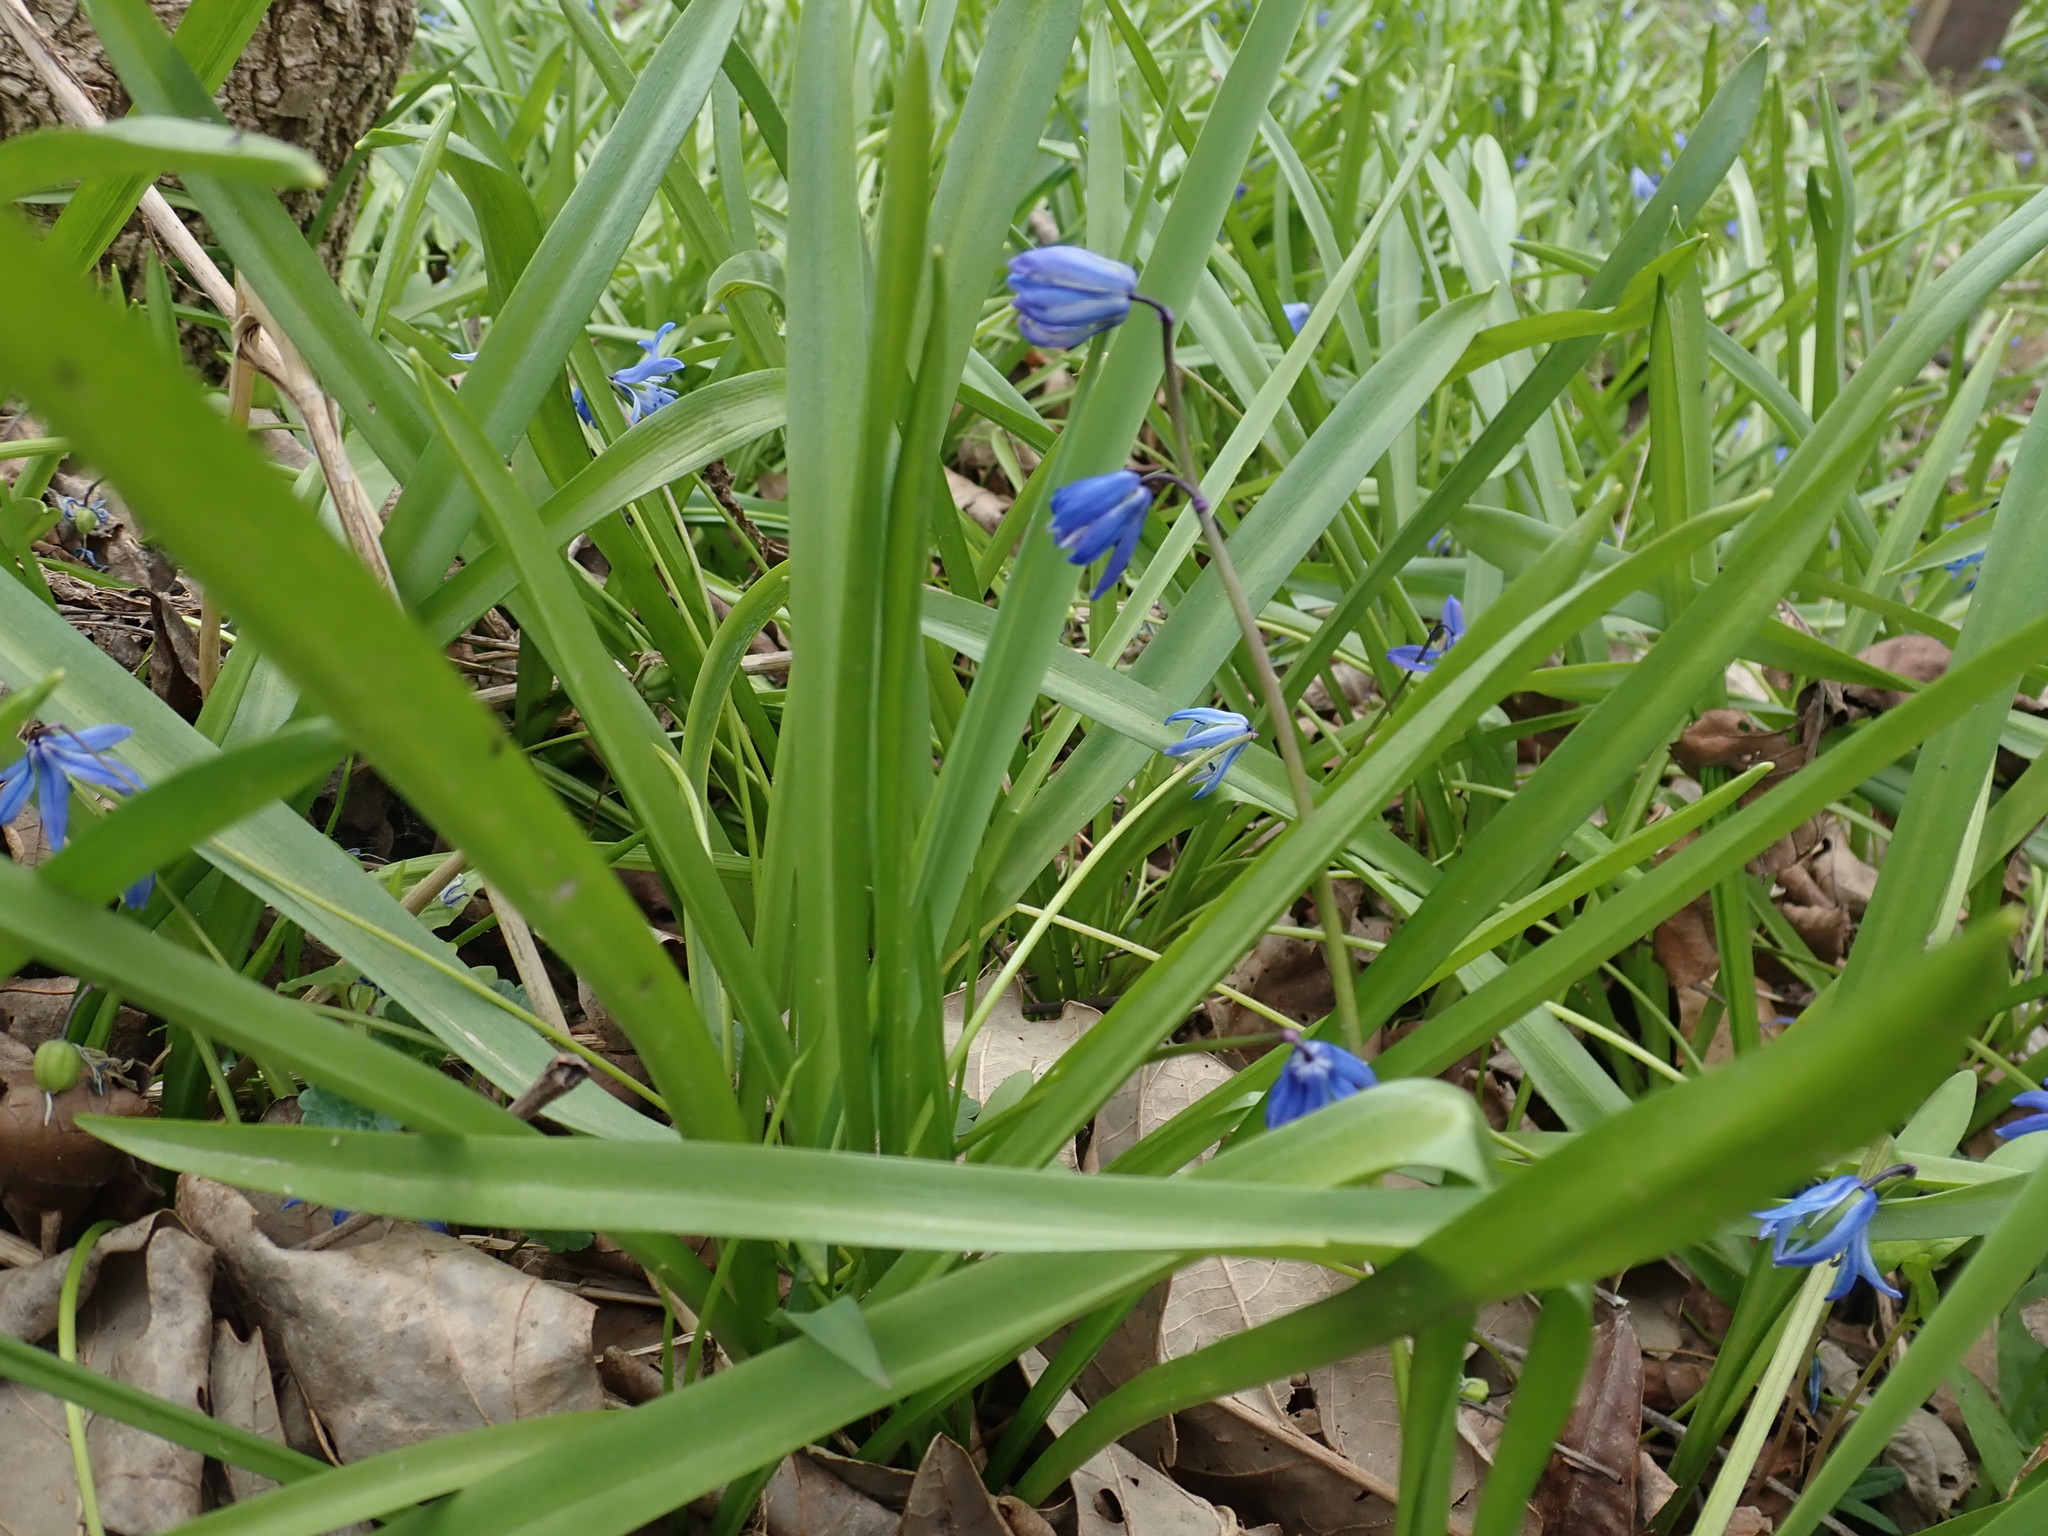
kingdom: Plantae
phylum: Tracheophyta
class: Liliopsida
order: Asparagales
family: Asparagaceae
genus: Scilla
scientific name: Scilla siberica
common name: Siberian squill
